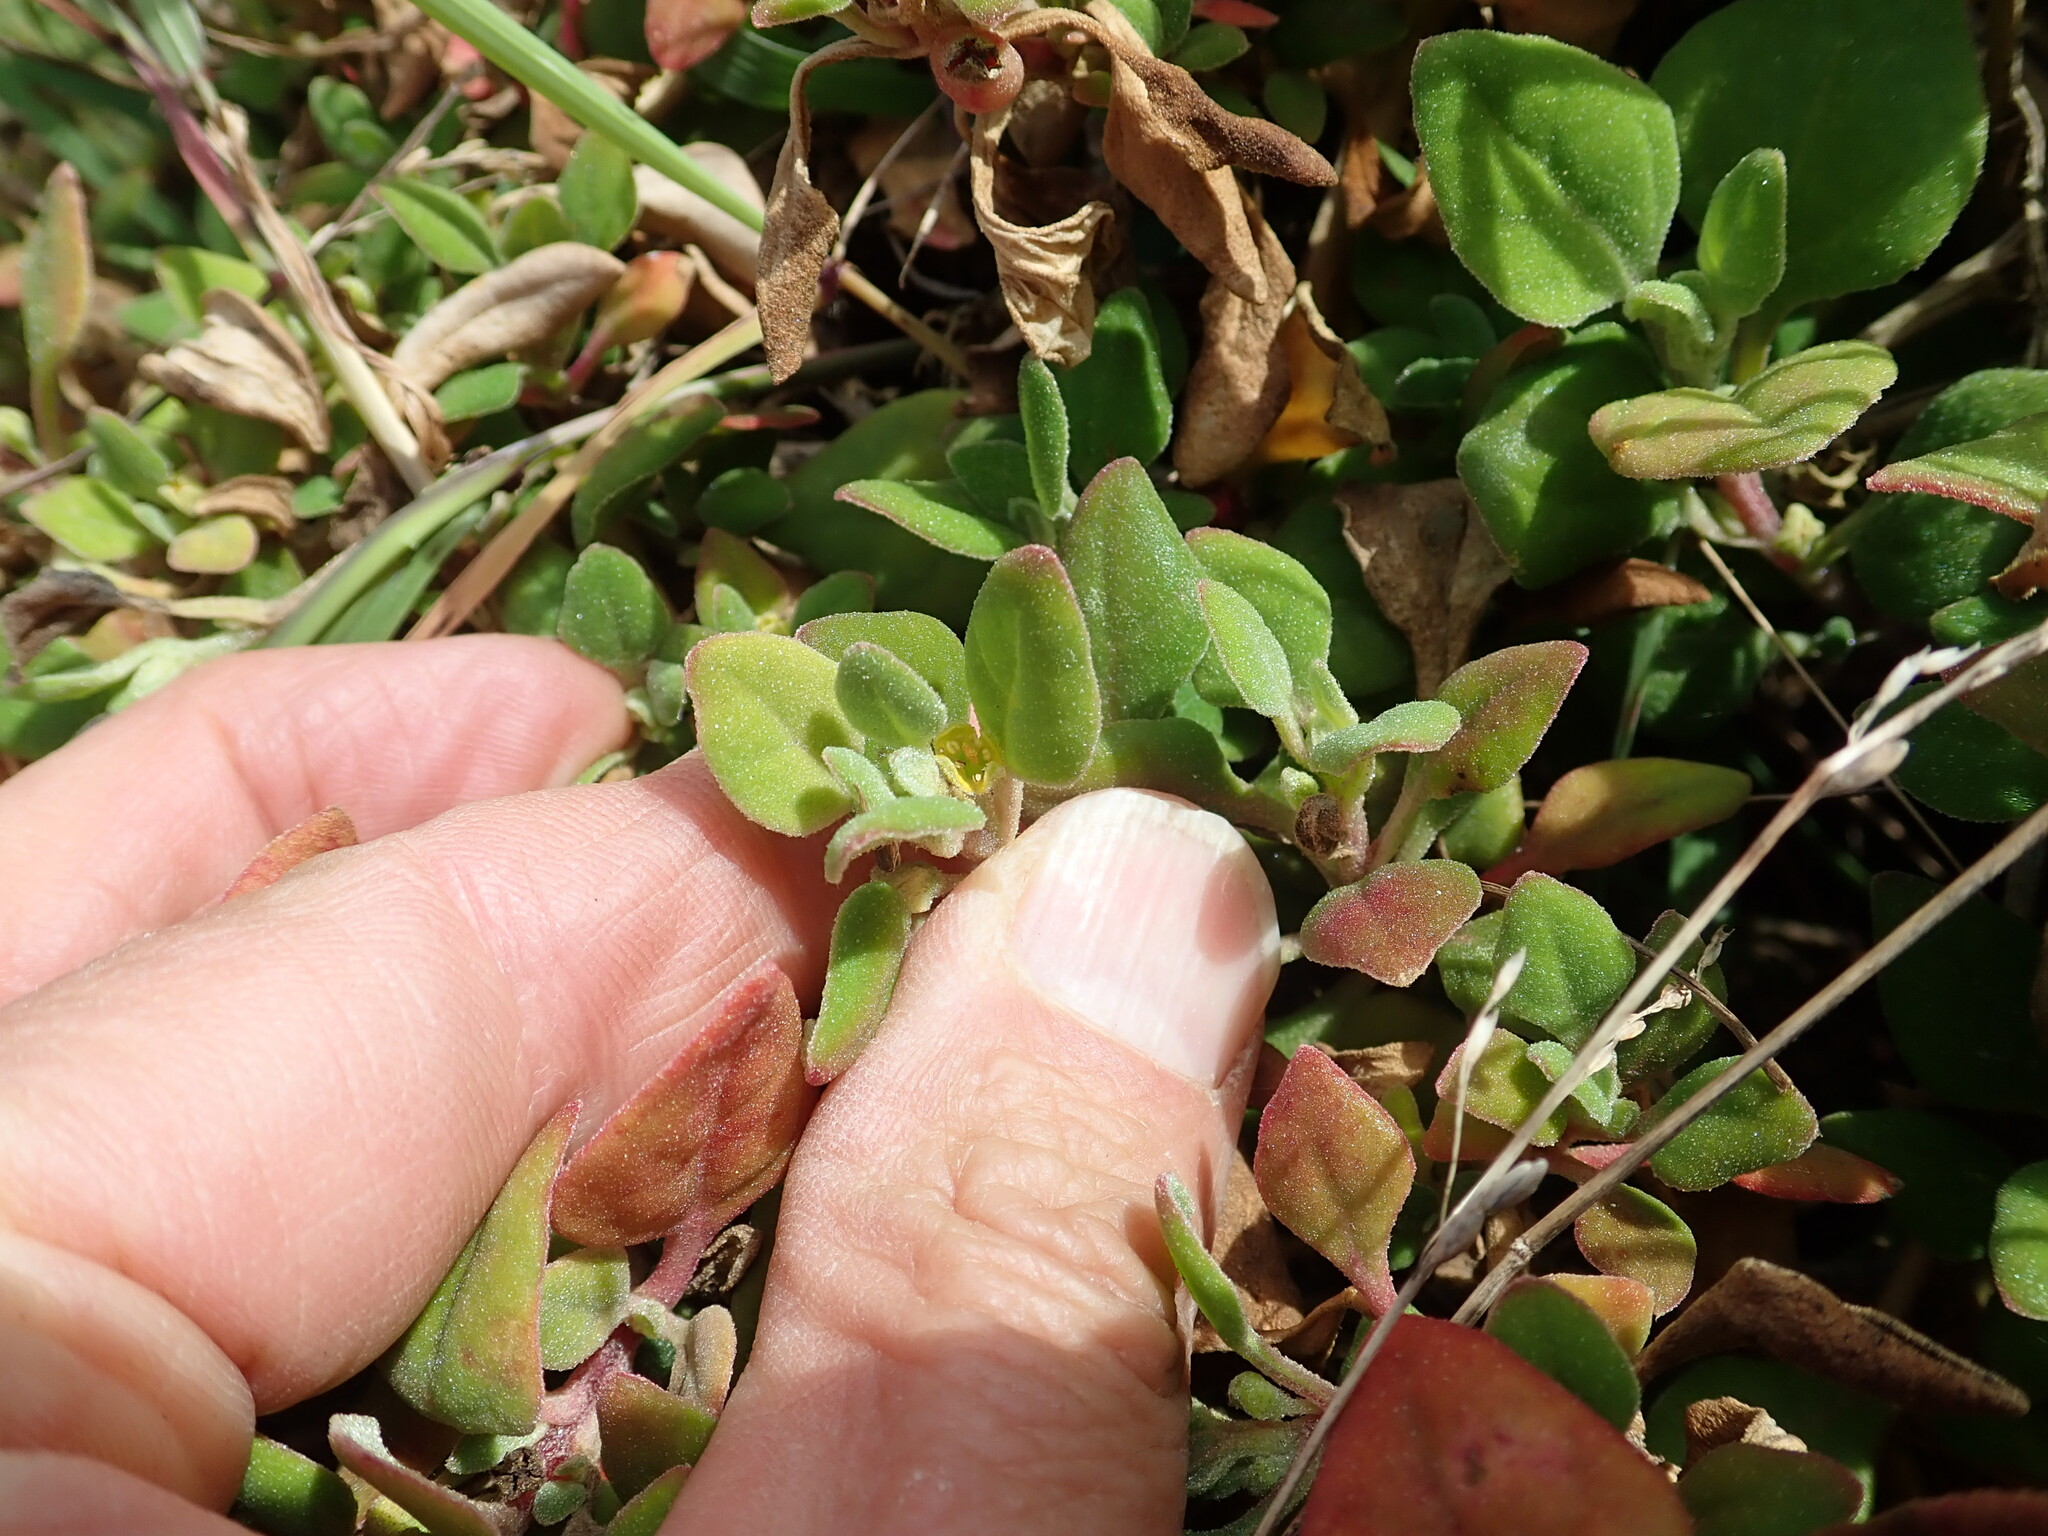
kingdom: Plantae
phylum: Tracheophyta
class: Magnoliopsida
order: Caryophyllales
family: Aizoaceae
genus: Tetragonia
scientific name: Tetragonia implexicoma
